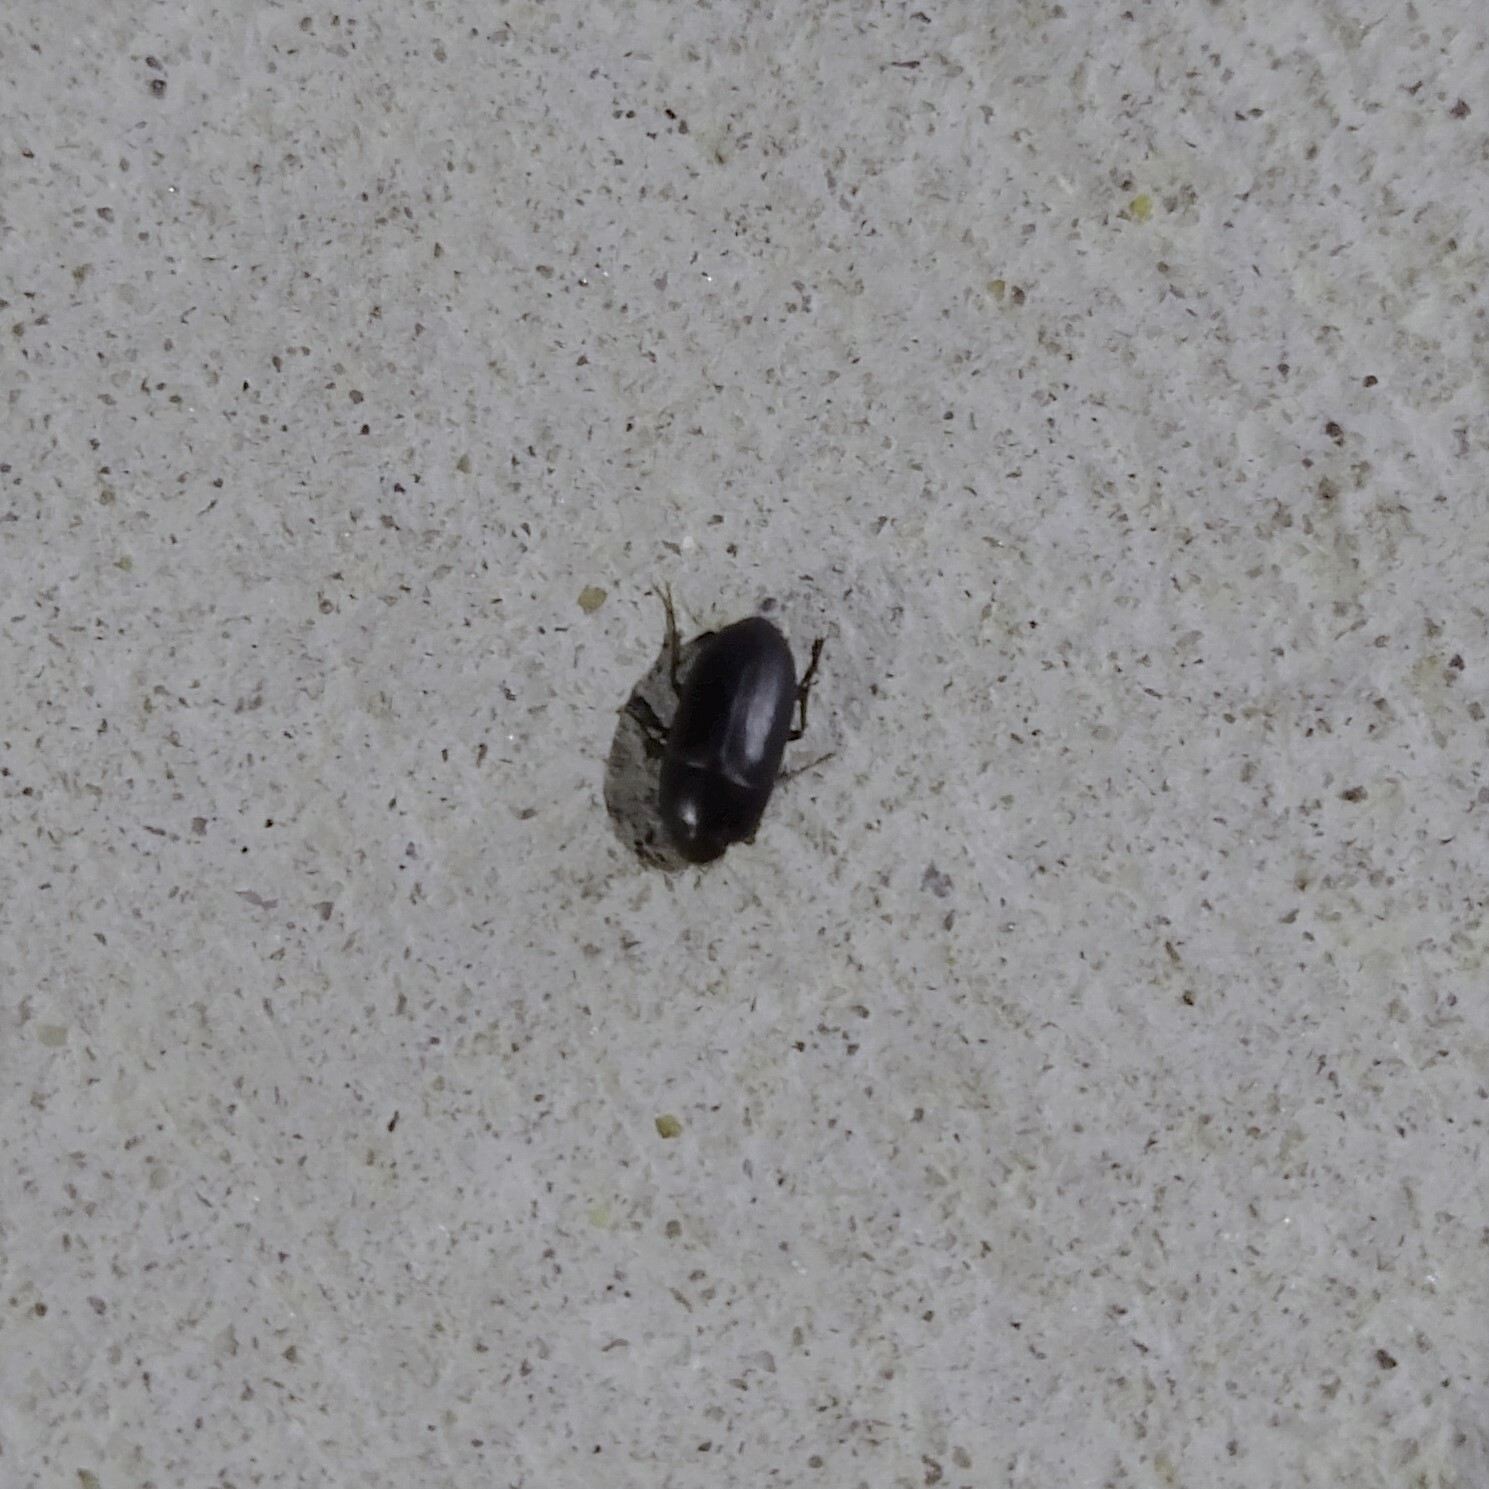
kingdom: Animalia
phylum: Arthropoda
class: Insecta
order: Coleoptera
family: Tenebrionidae
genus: Coniontis
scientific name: Coniontis
